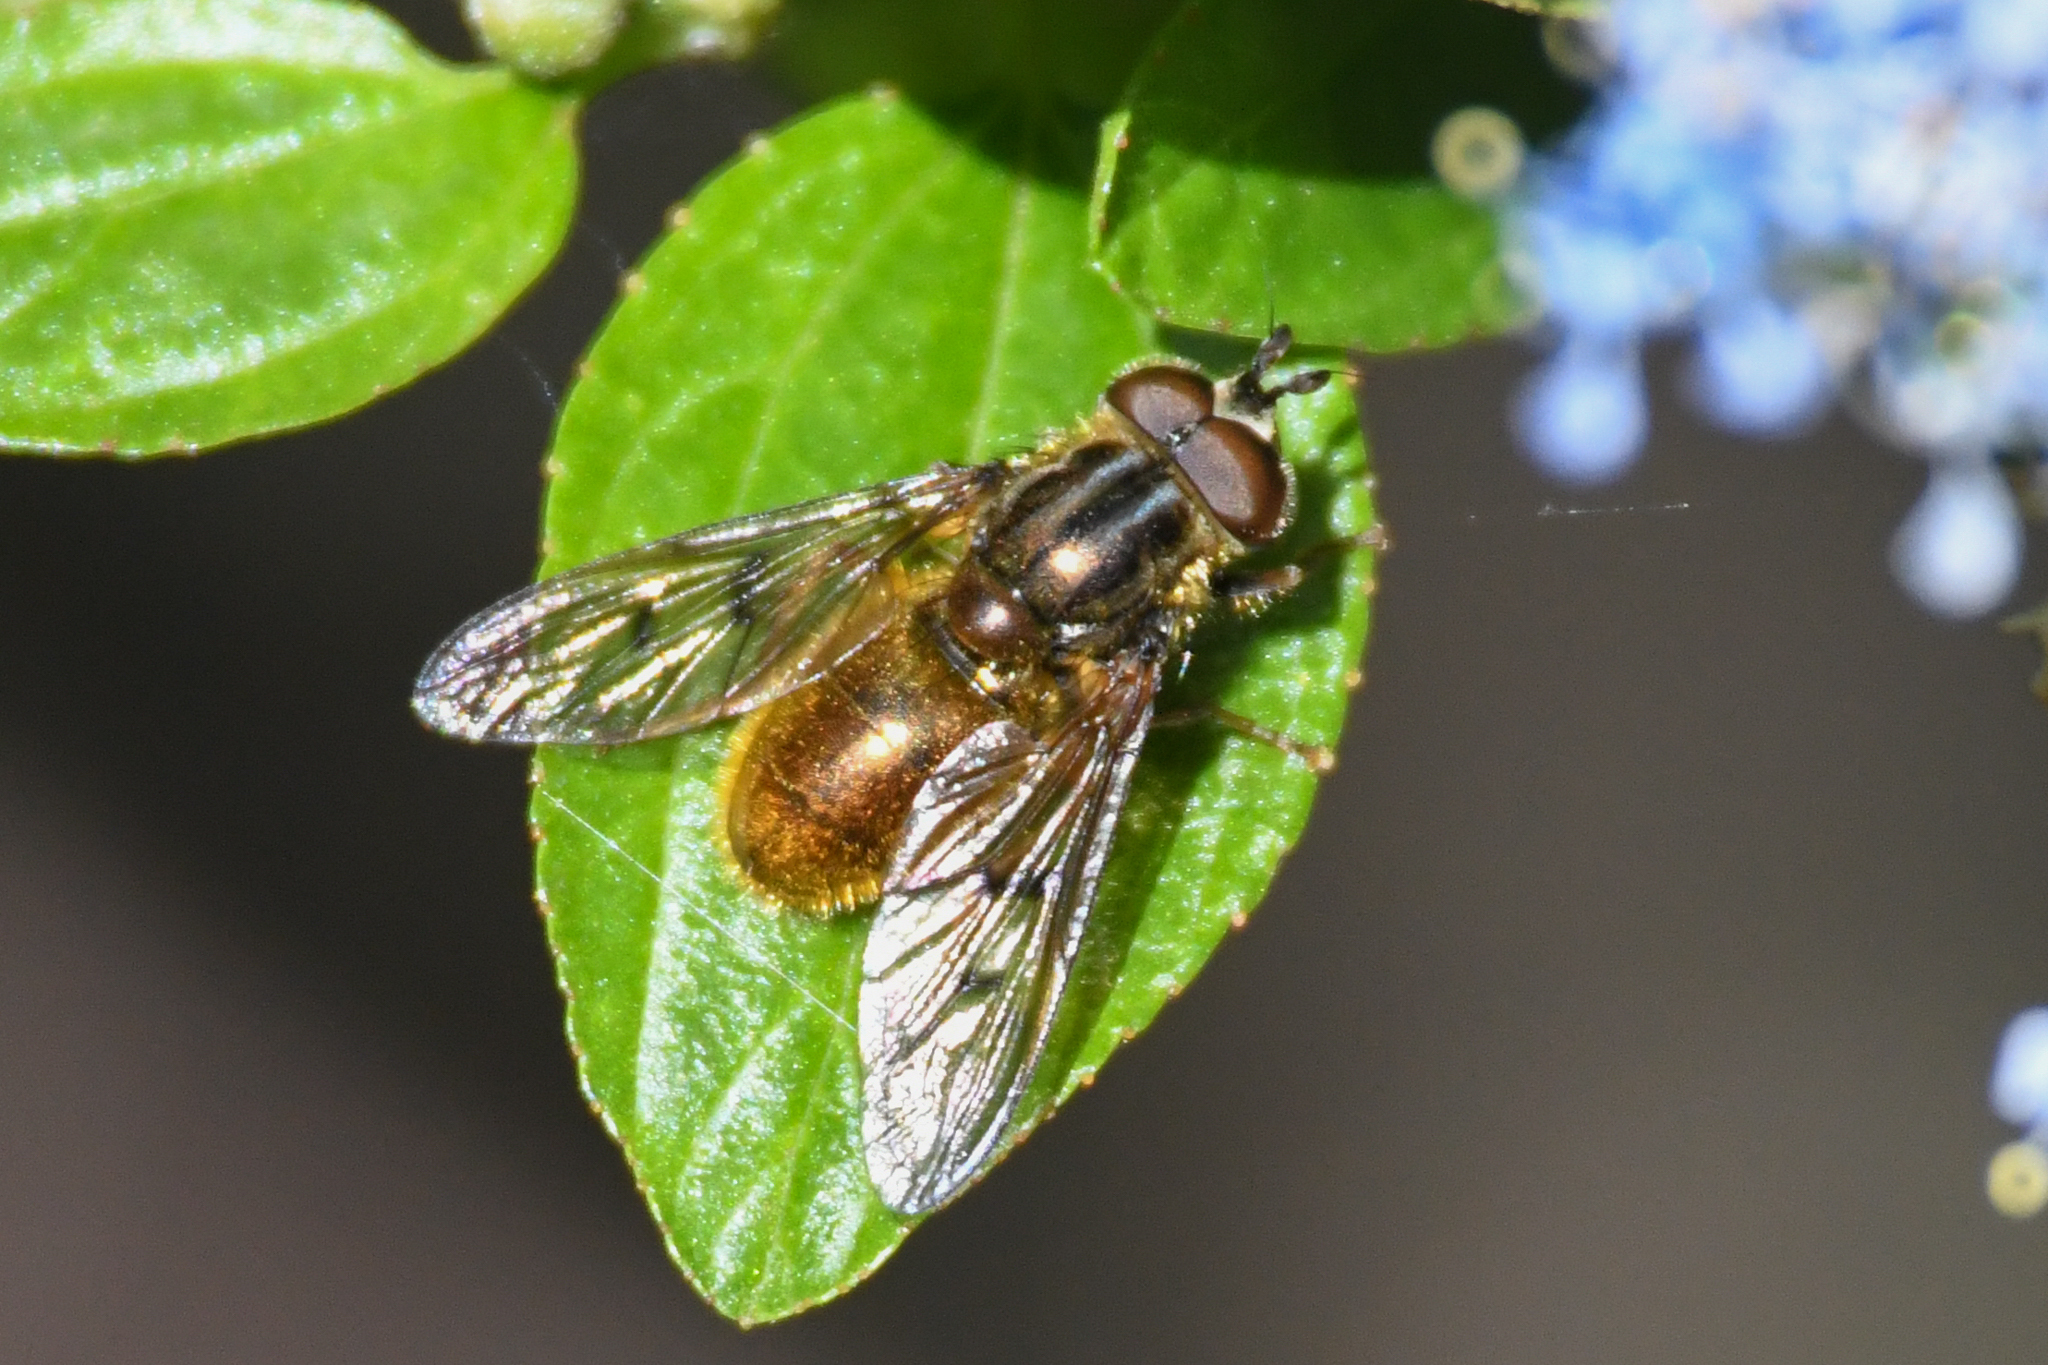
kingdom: Animalia
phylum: Arthropoda
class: Insecta
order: Diptera
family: Syrphidae
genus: Ferdinandea
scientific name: Ferdinandea croesus
